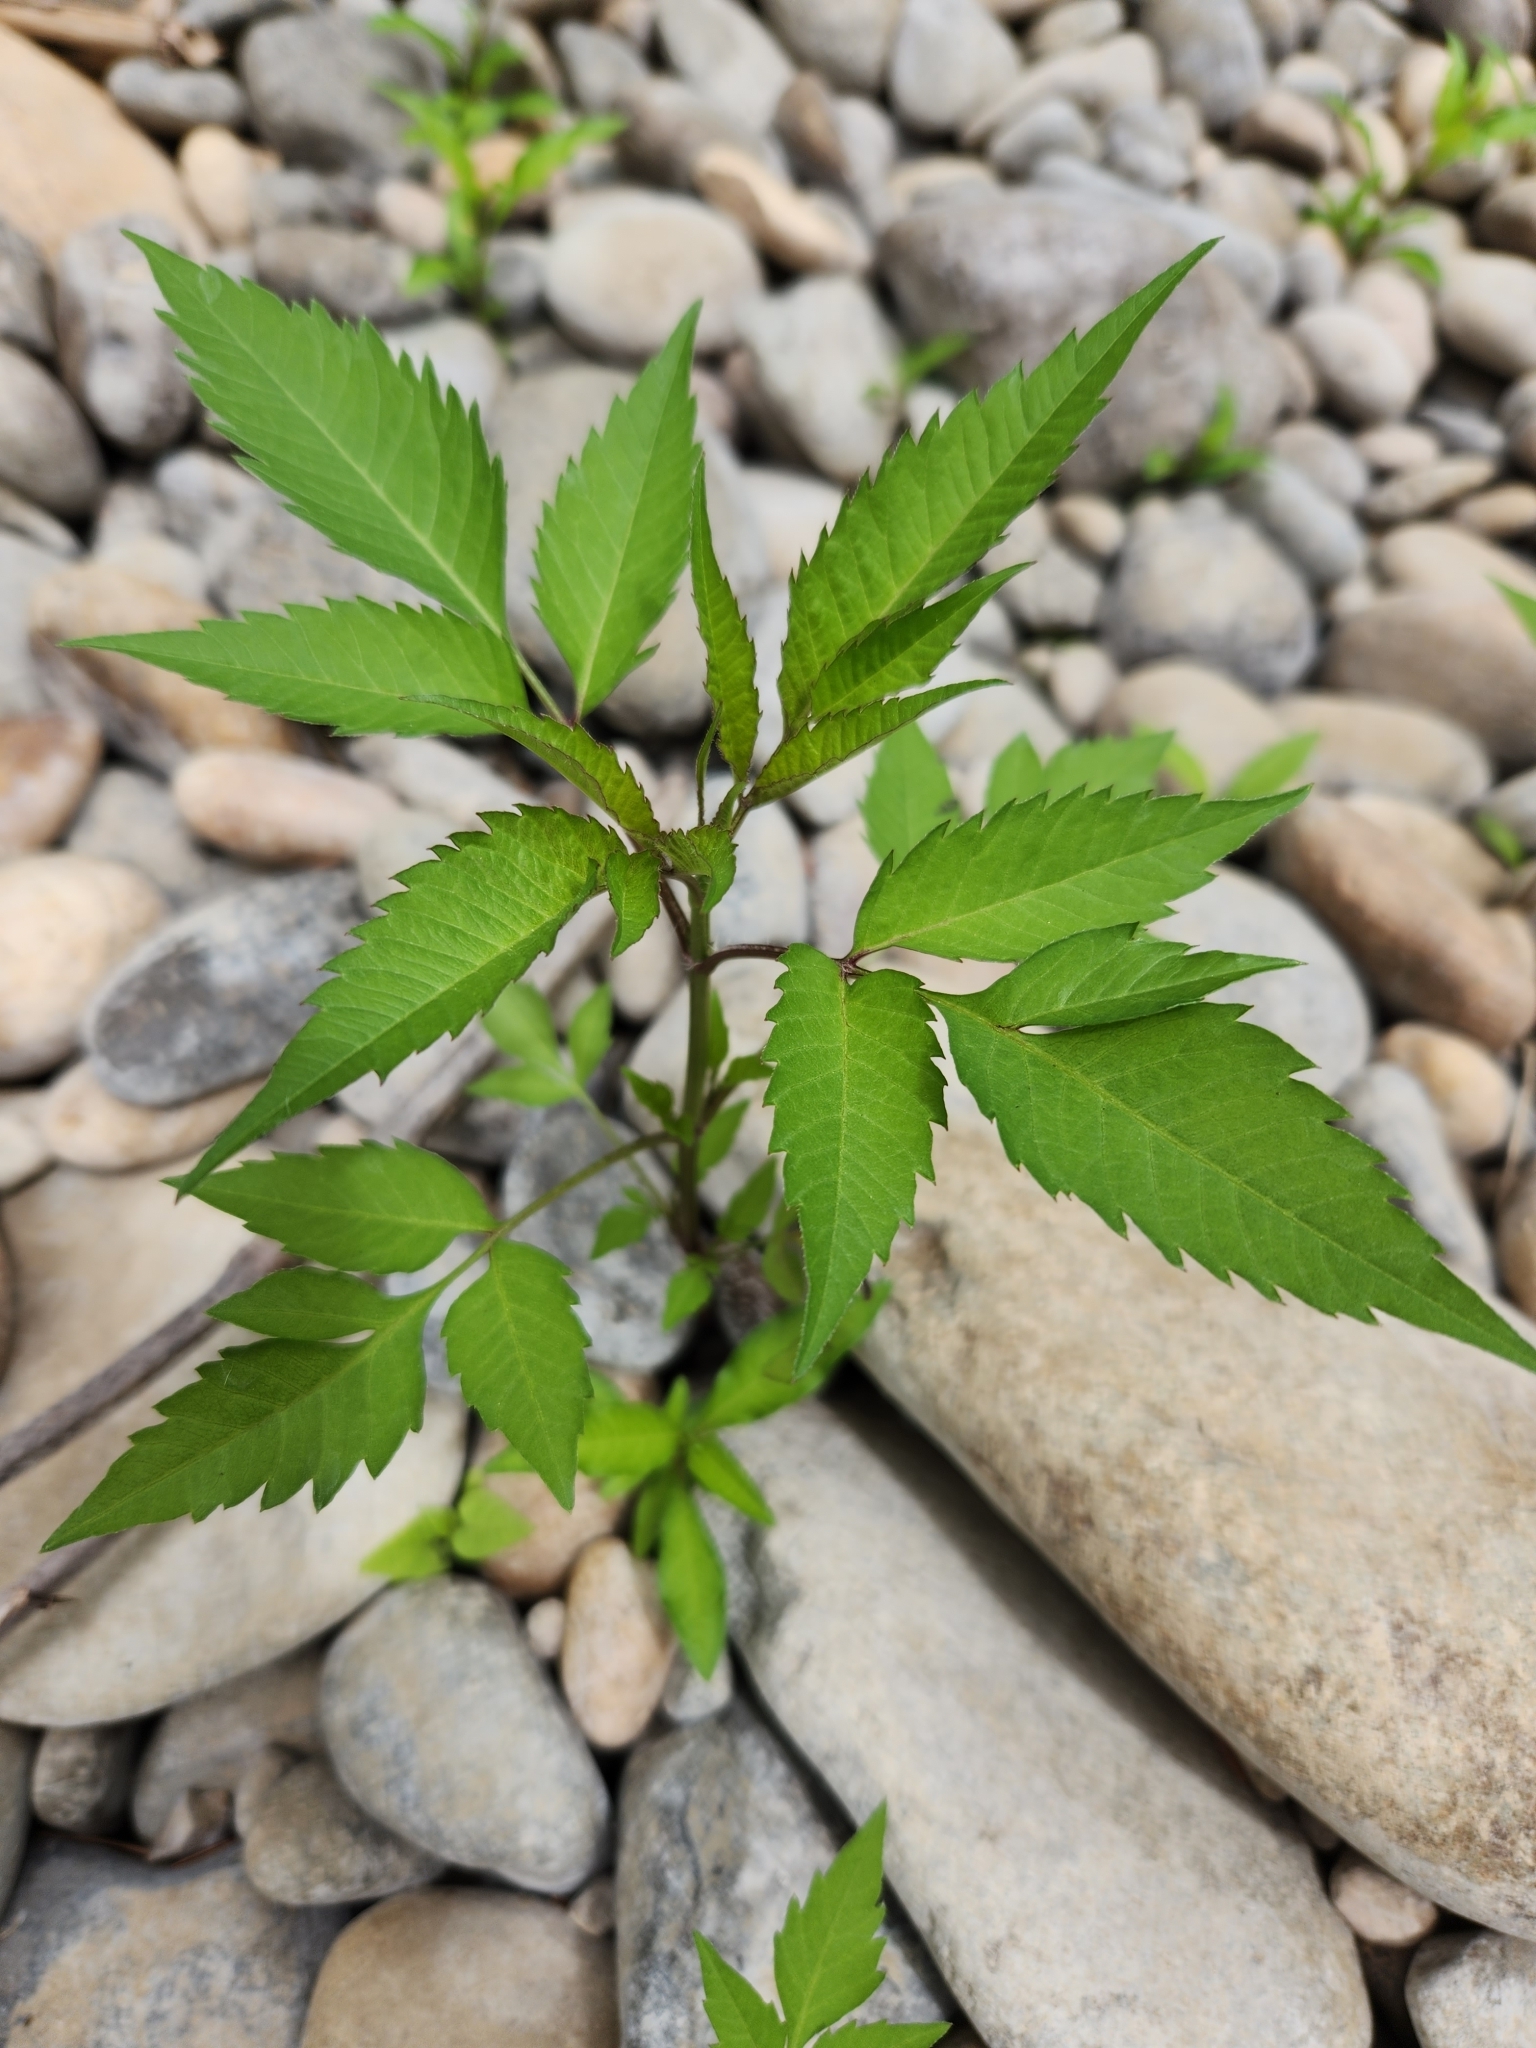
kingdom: Plantae
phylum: Tracheophyta
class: Magnoliopsida
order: Asterales
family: Asteraceae
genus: Bidens
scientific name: Bidens frondosa
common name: Beggarticks
